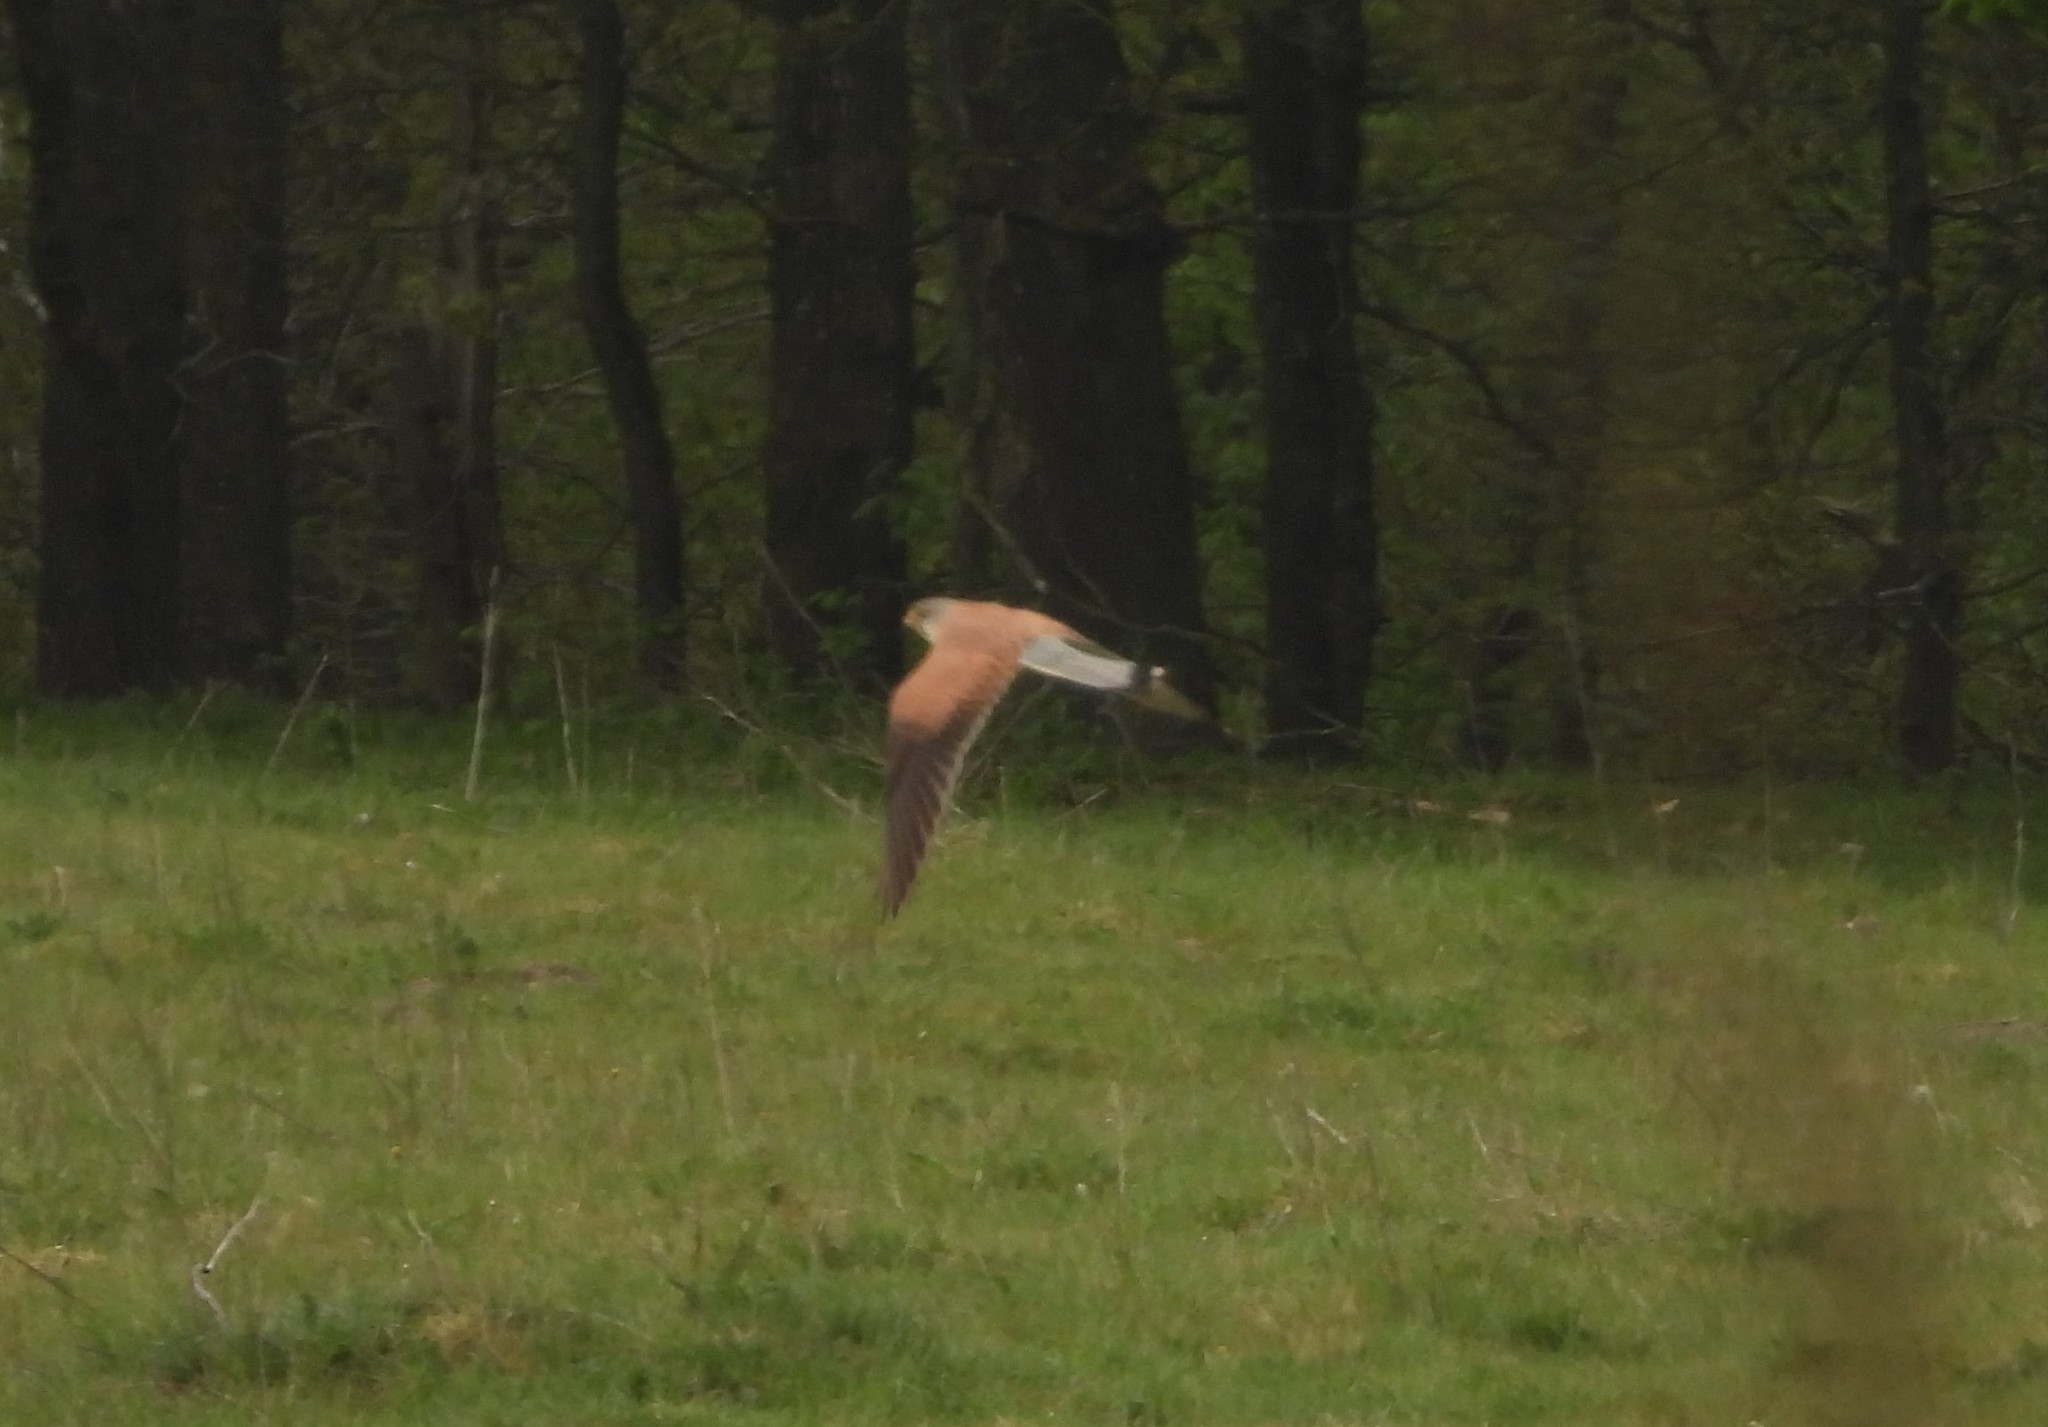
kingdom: Animalia
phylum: Chordata
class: Aves
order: Falconiformes
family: Falconidae
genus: Falco
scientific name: Falco tinnunculus
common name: Common kestrel
